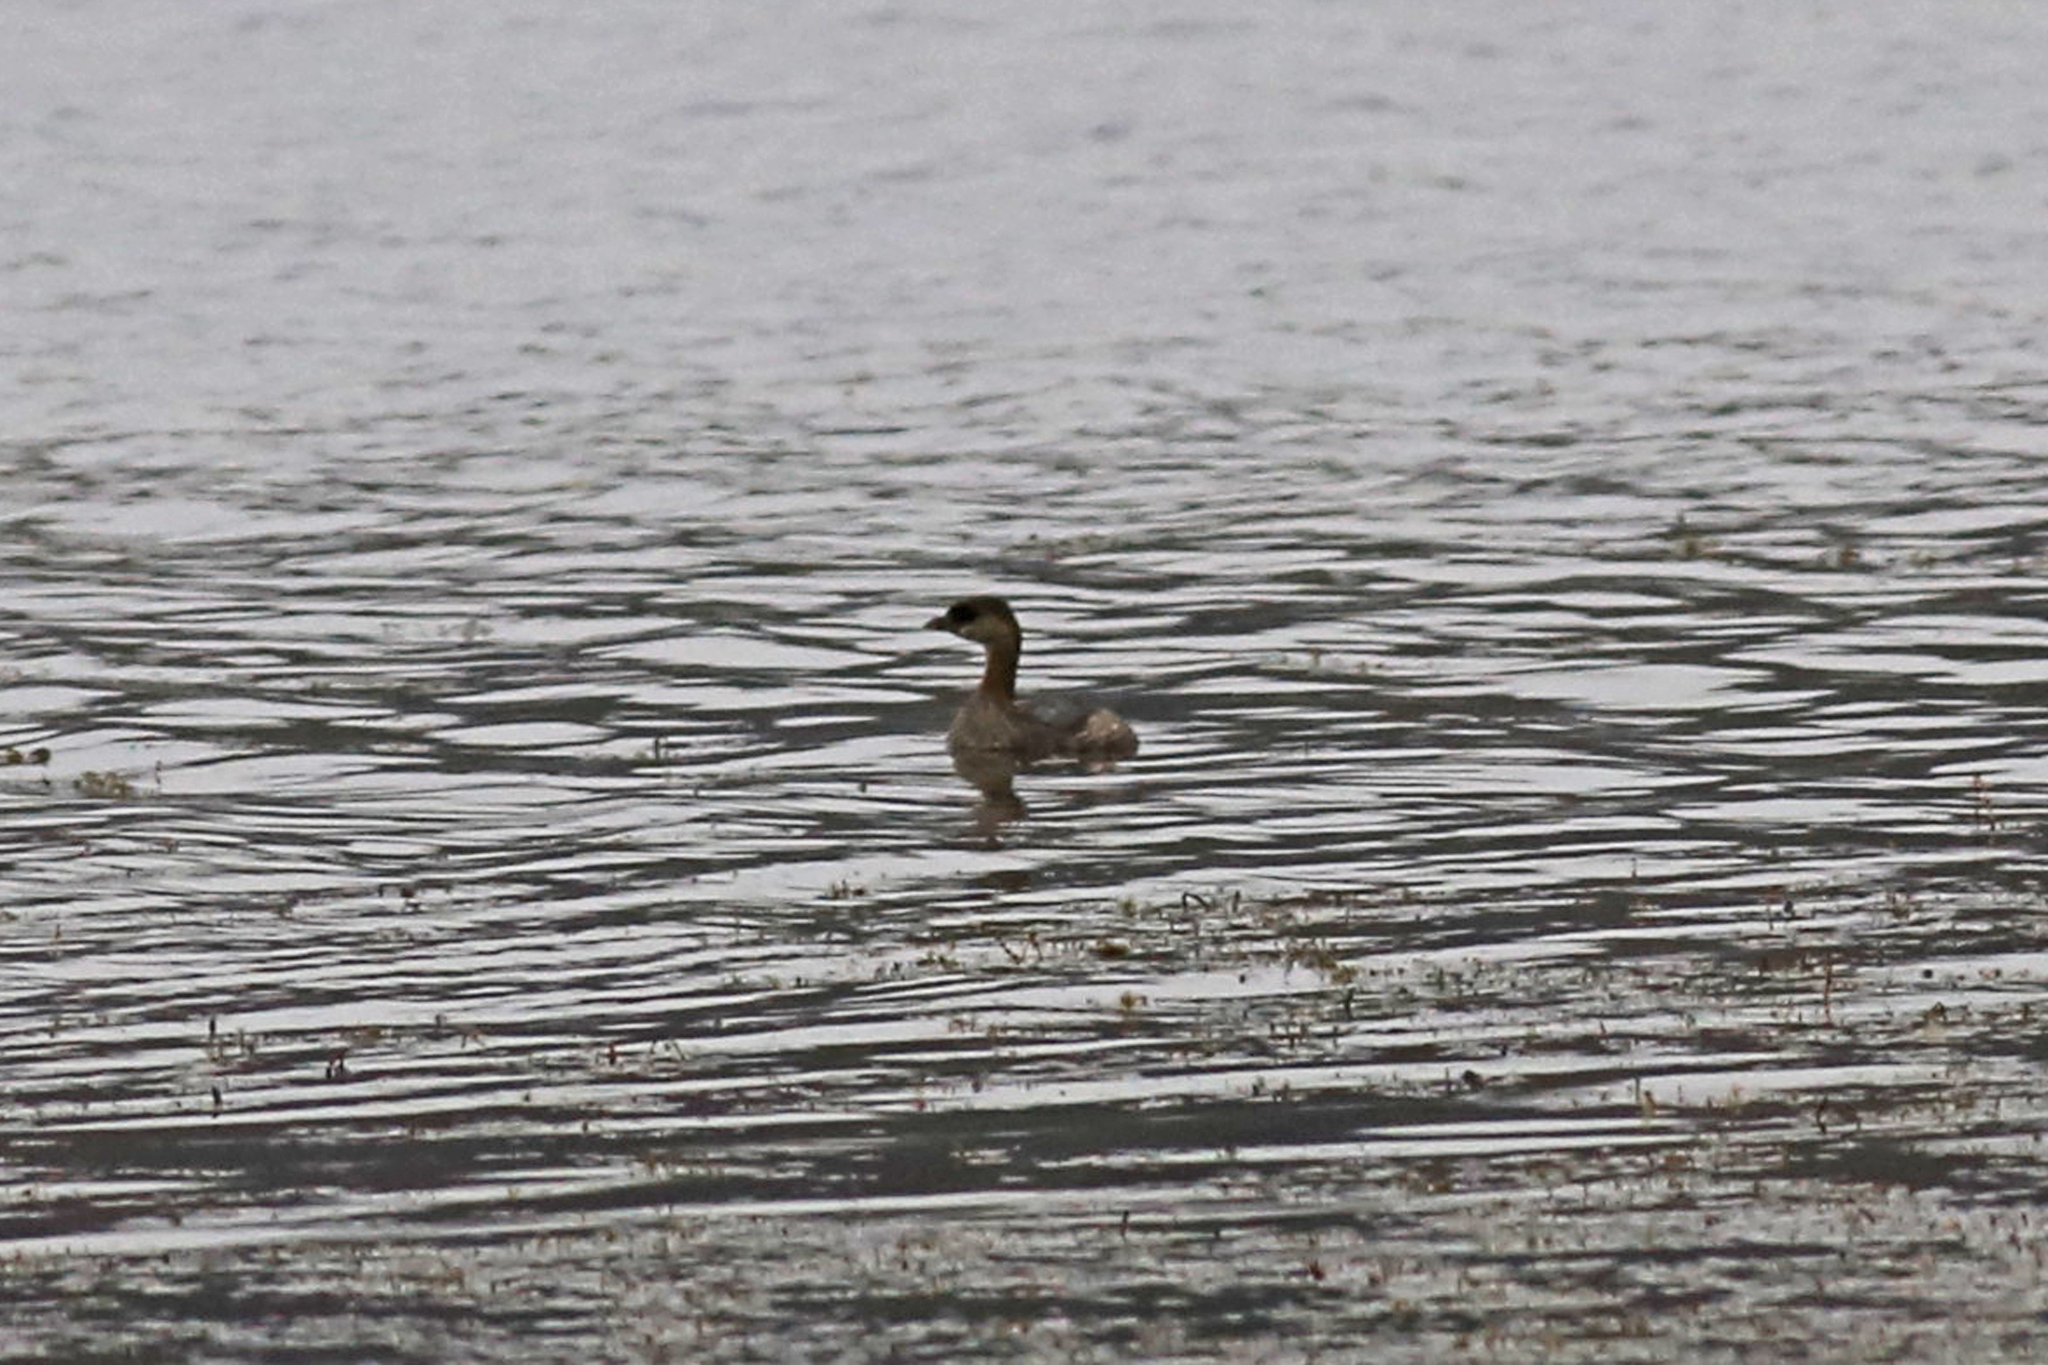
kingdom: Animalia
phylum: Chordata
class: Aves
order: Podicipediformes
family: Podicipedidae
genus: Podilymbus
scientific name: Podilymbus podiceps
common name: Pied-billed grebe
